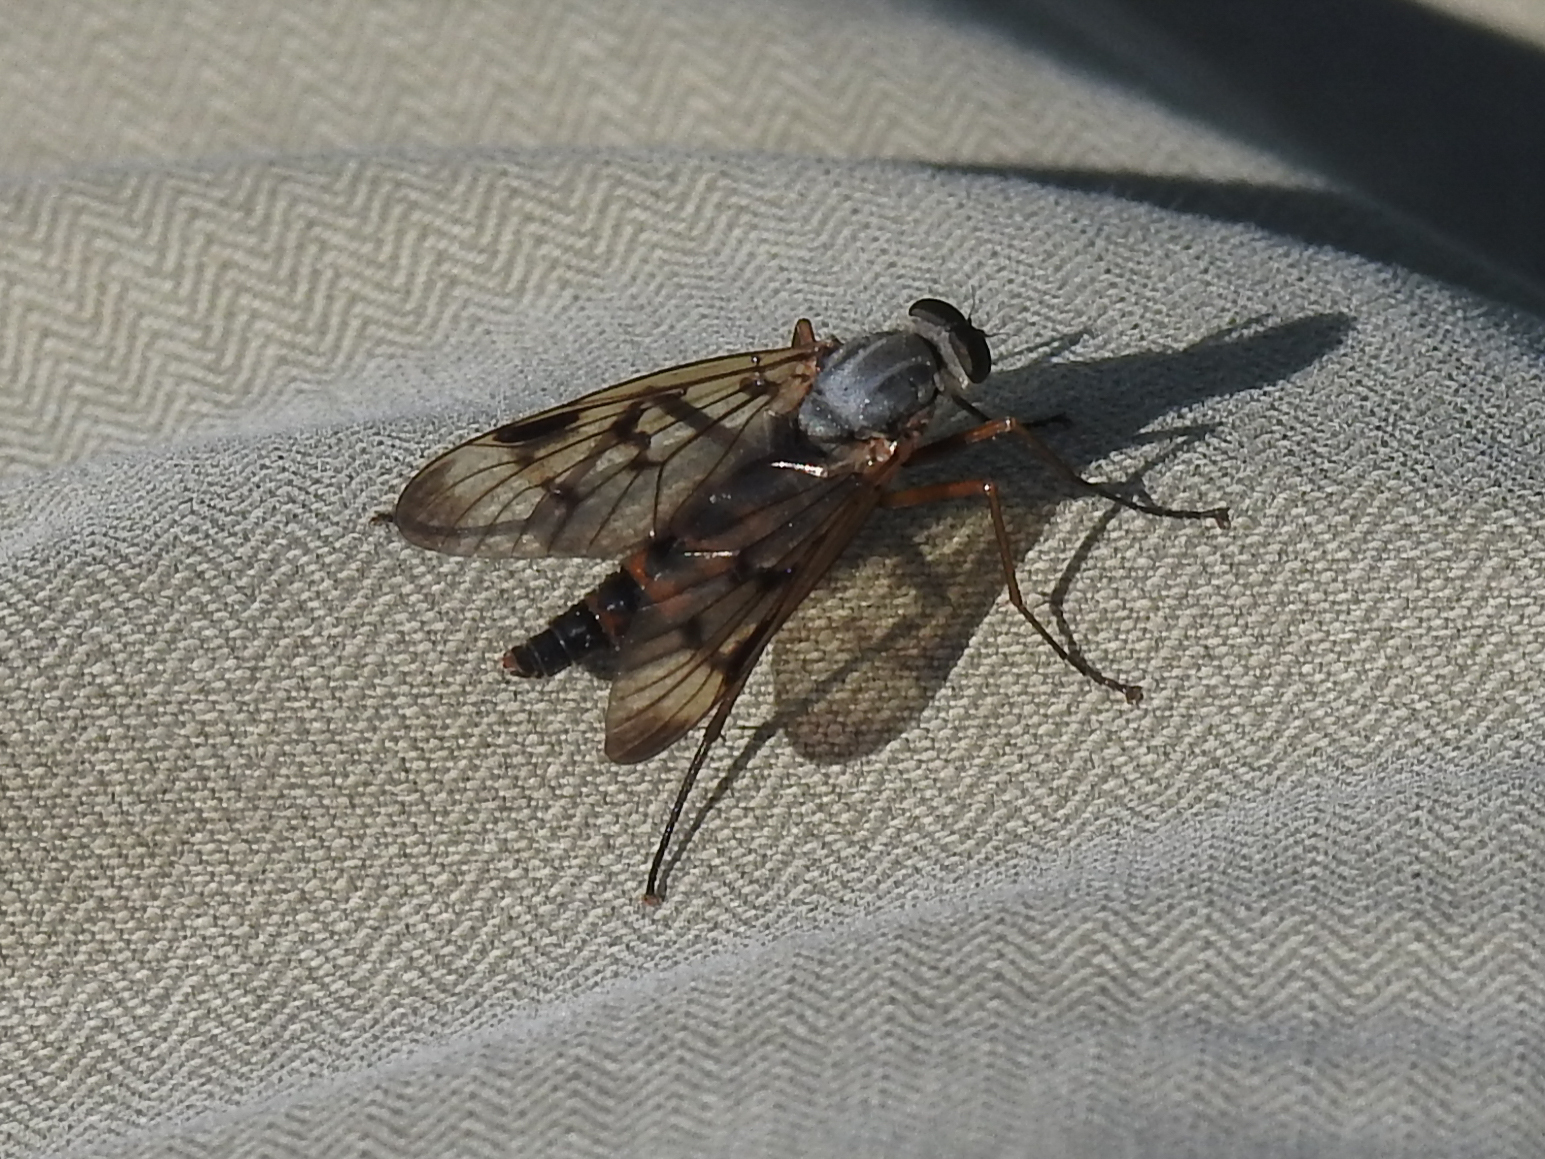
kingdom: Animalia
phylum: Arthropoda
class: Insecta
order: Diptera
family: Rhagionidae
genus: Rhagio
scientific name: Rhagio scolopacea
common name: Downlooker snipefly
